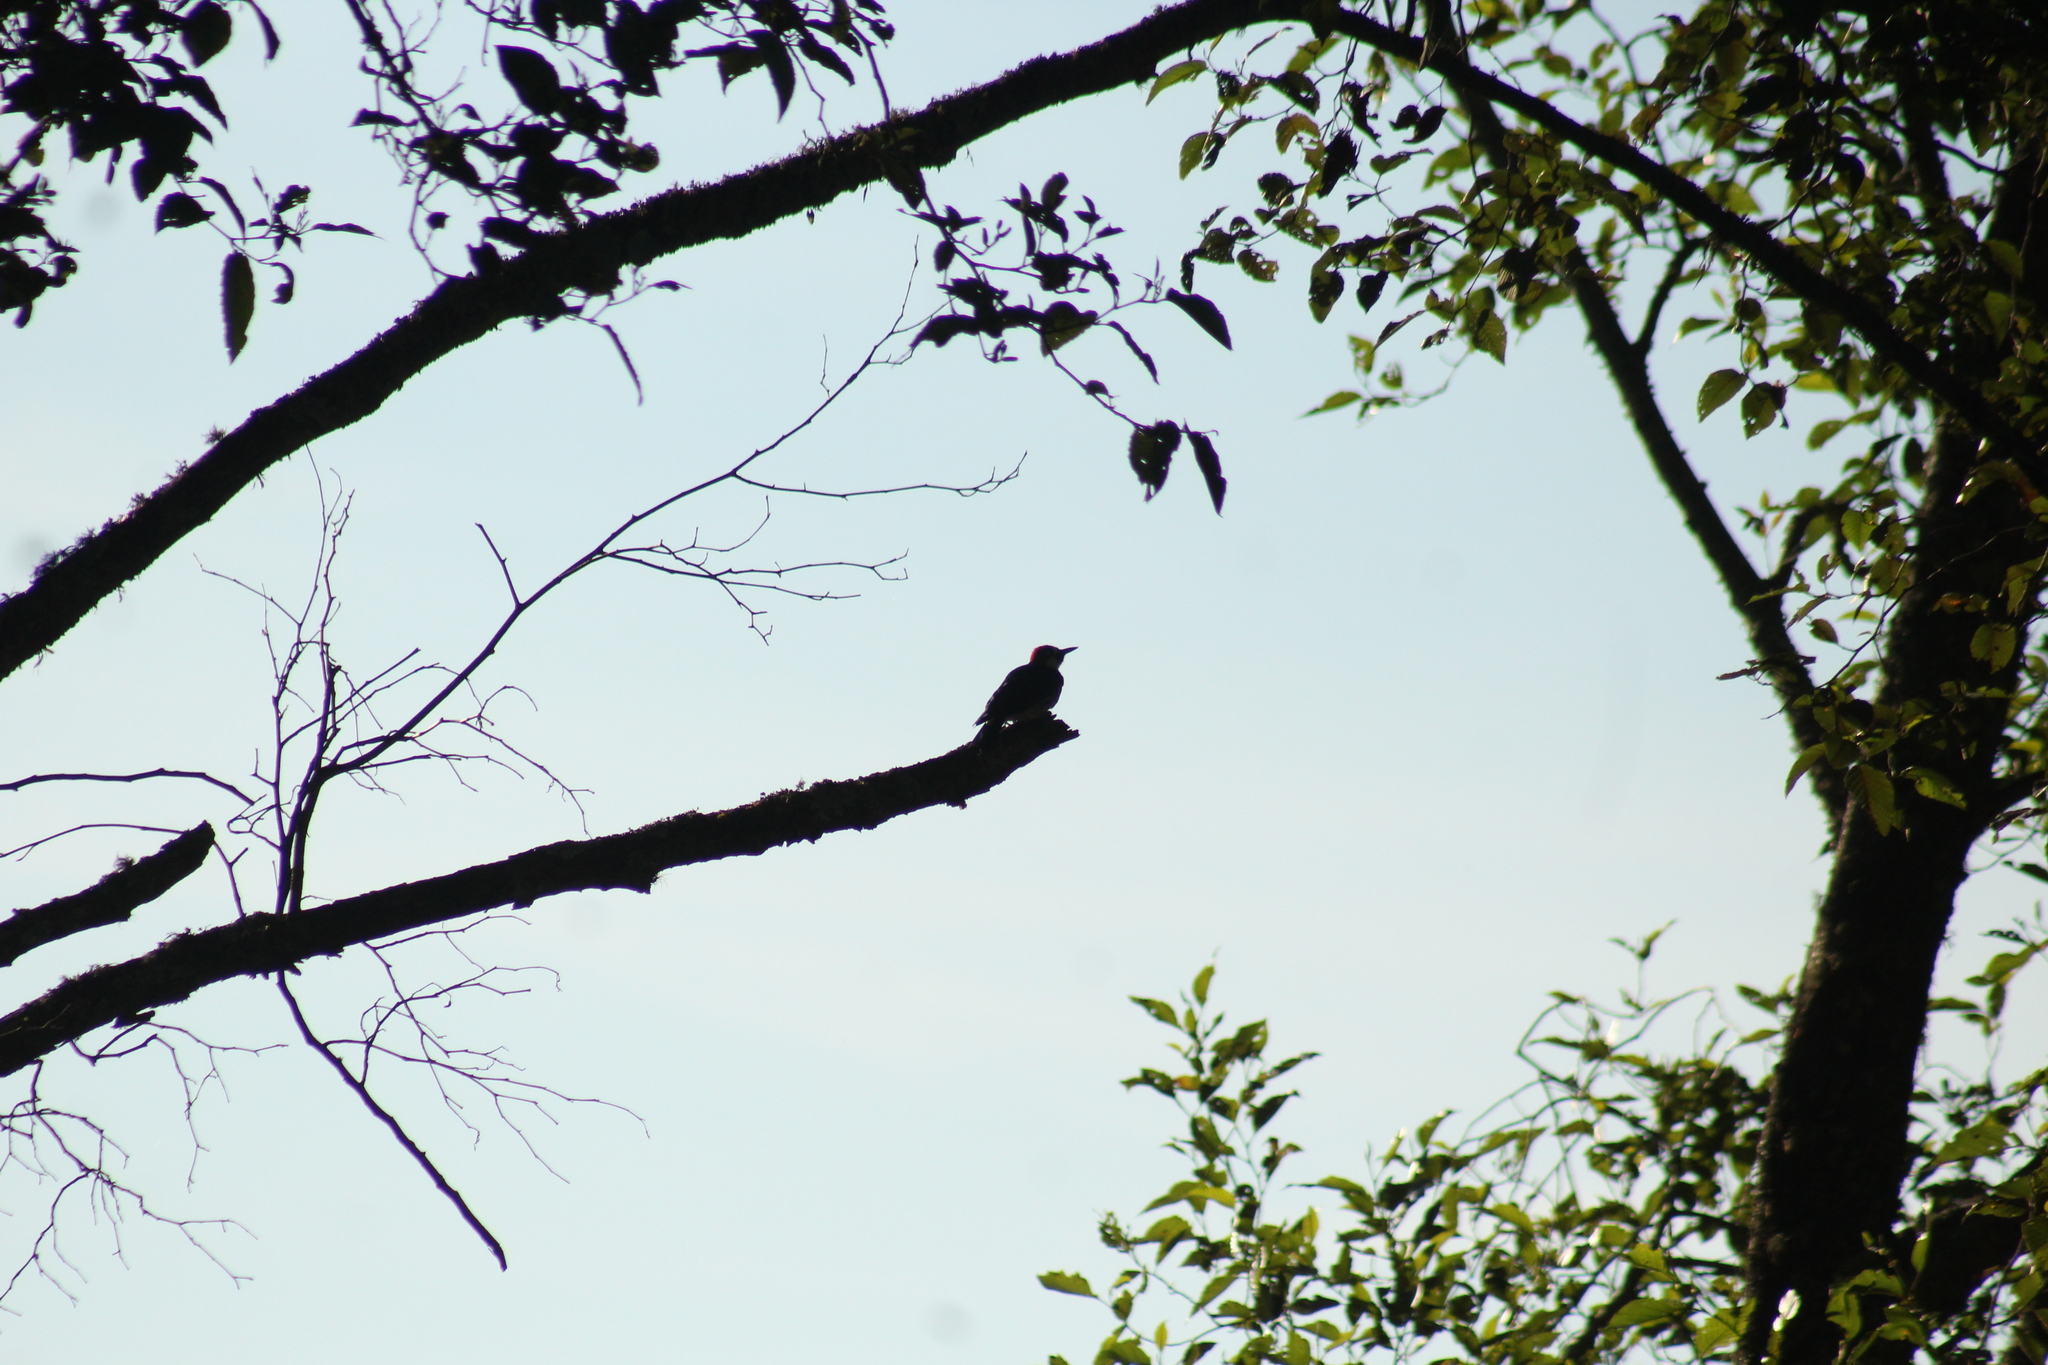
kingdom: Animalia
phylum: Chordata
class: Aves
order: Piciformes
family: Picidae
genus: Melanerpes
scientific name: Melanerpes formicivorus
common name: Acorn woodpecker
